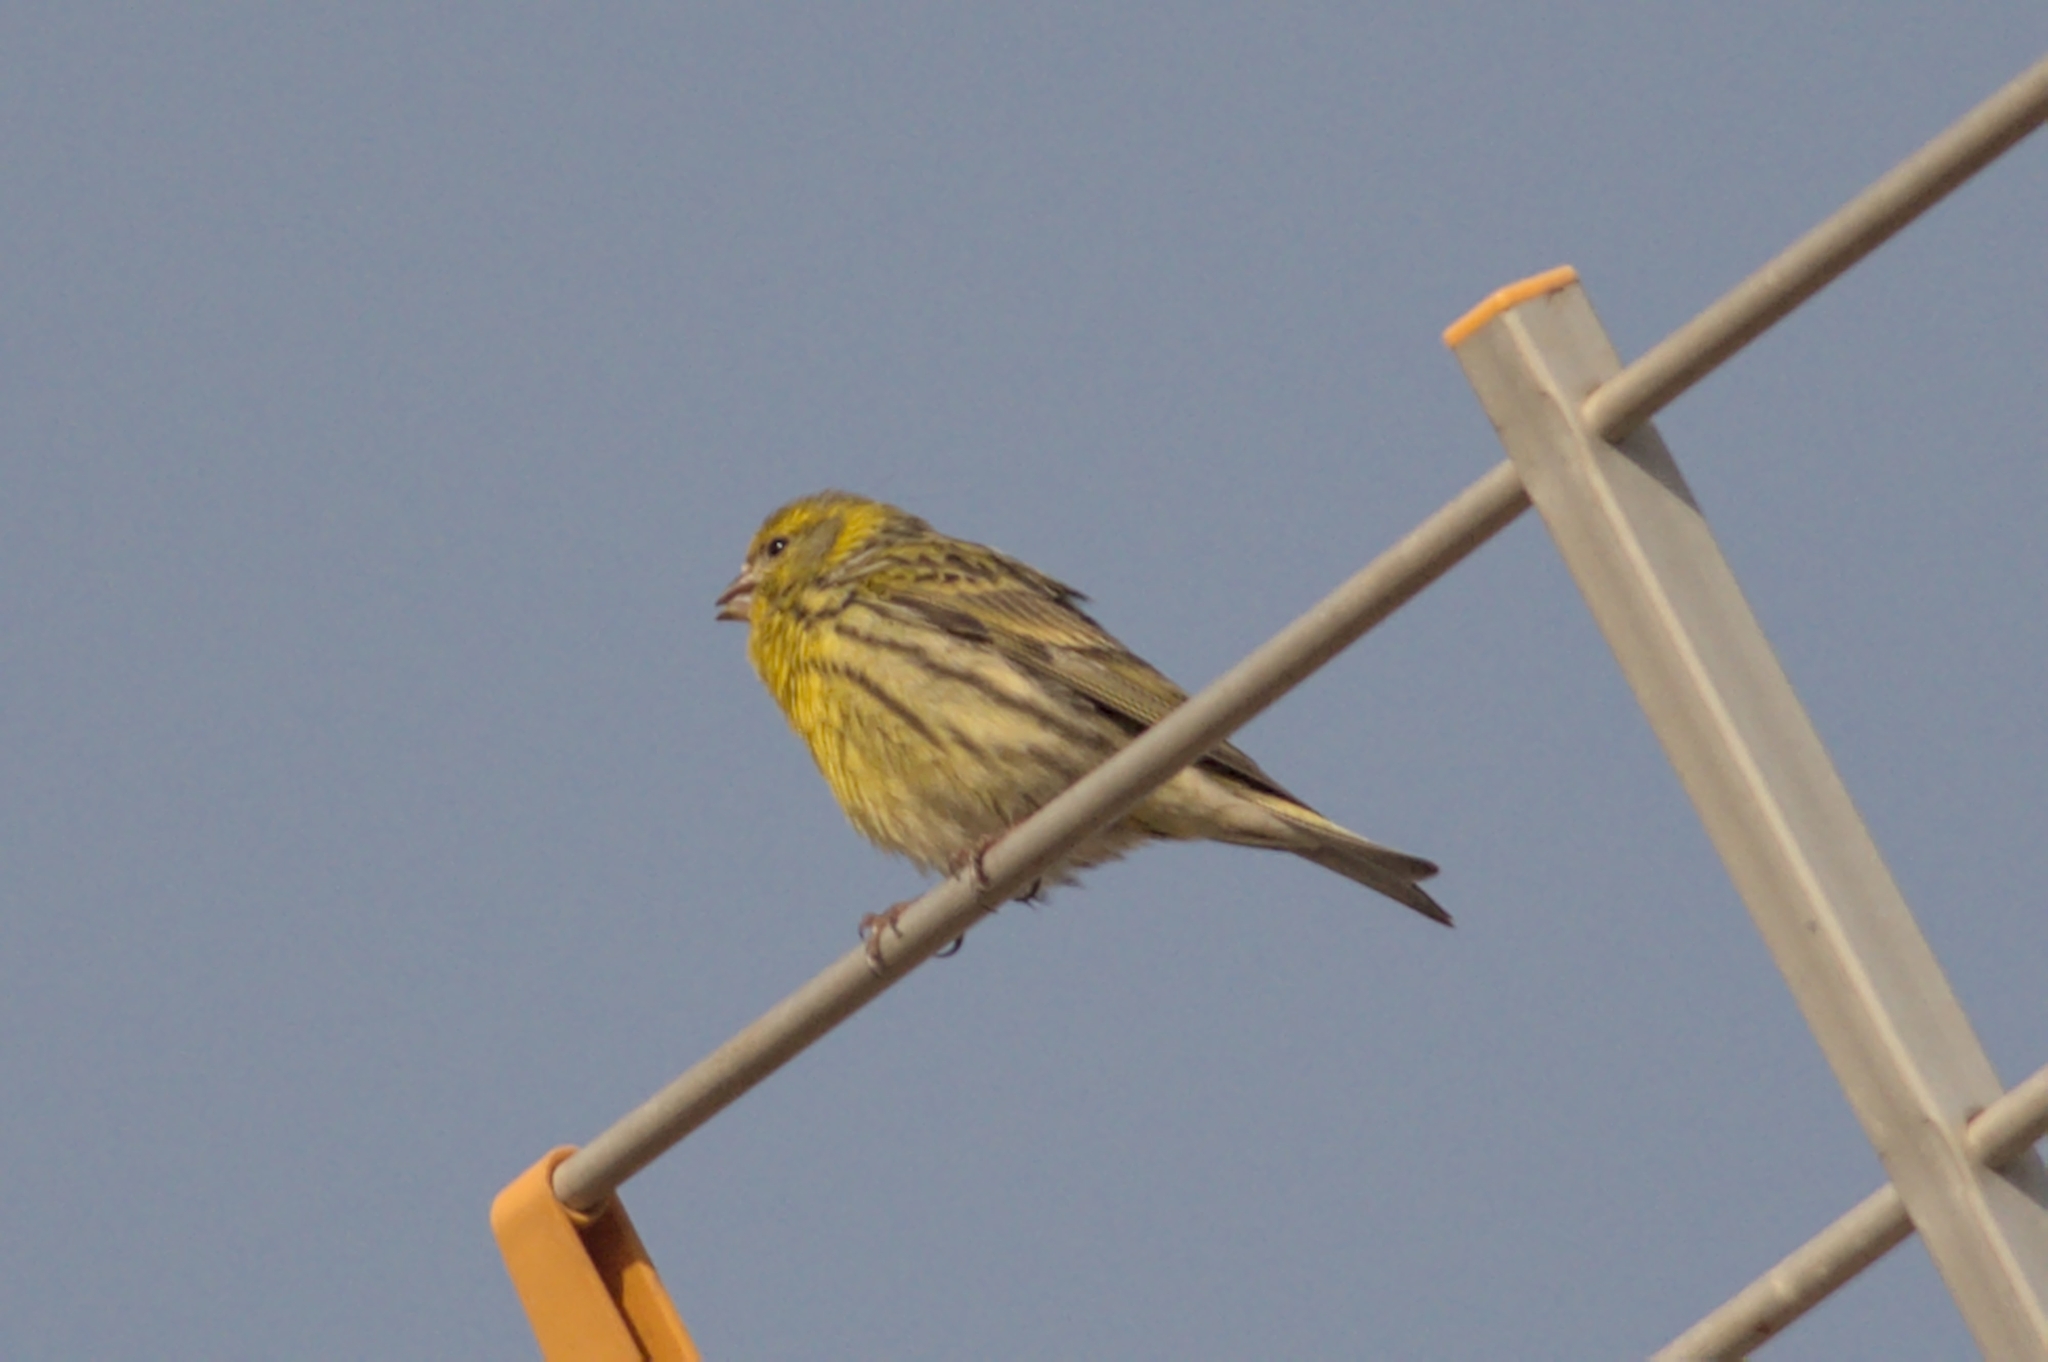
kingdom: Animalia
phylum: Chordata
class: Aves
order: Passeriformes
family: Fringillidae
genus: Serinus
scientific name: Serinus serinus
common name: European serin
